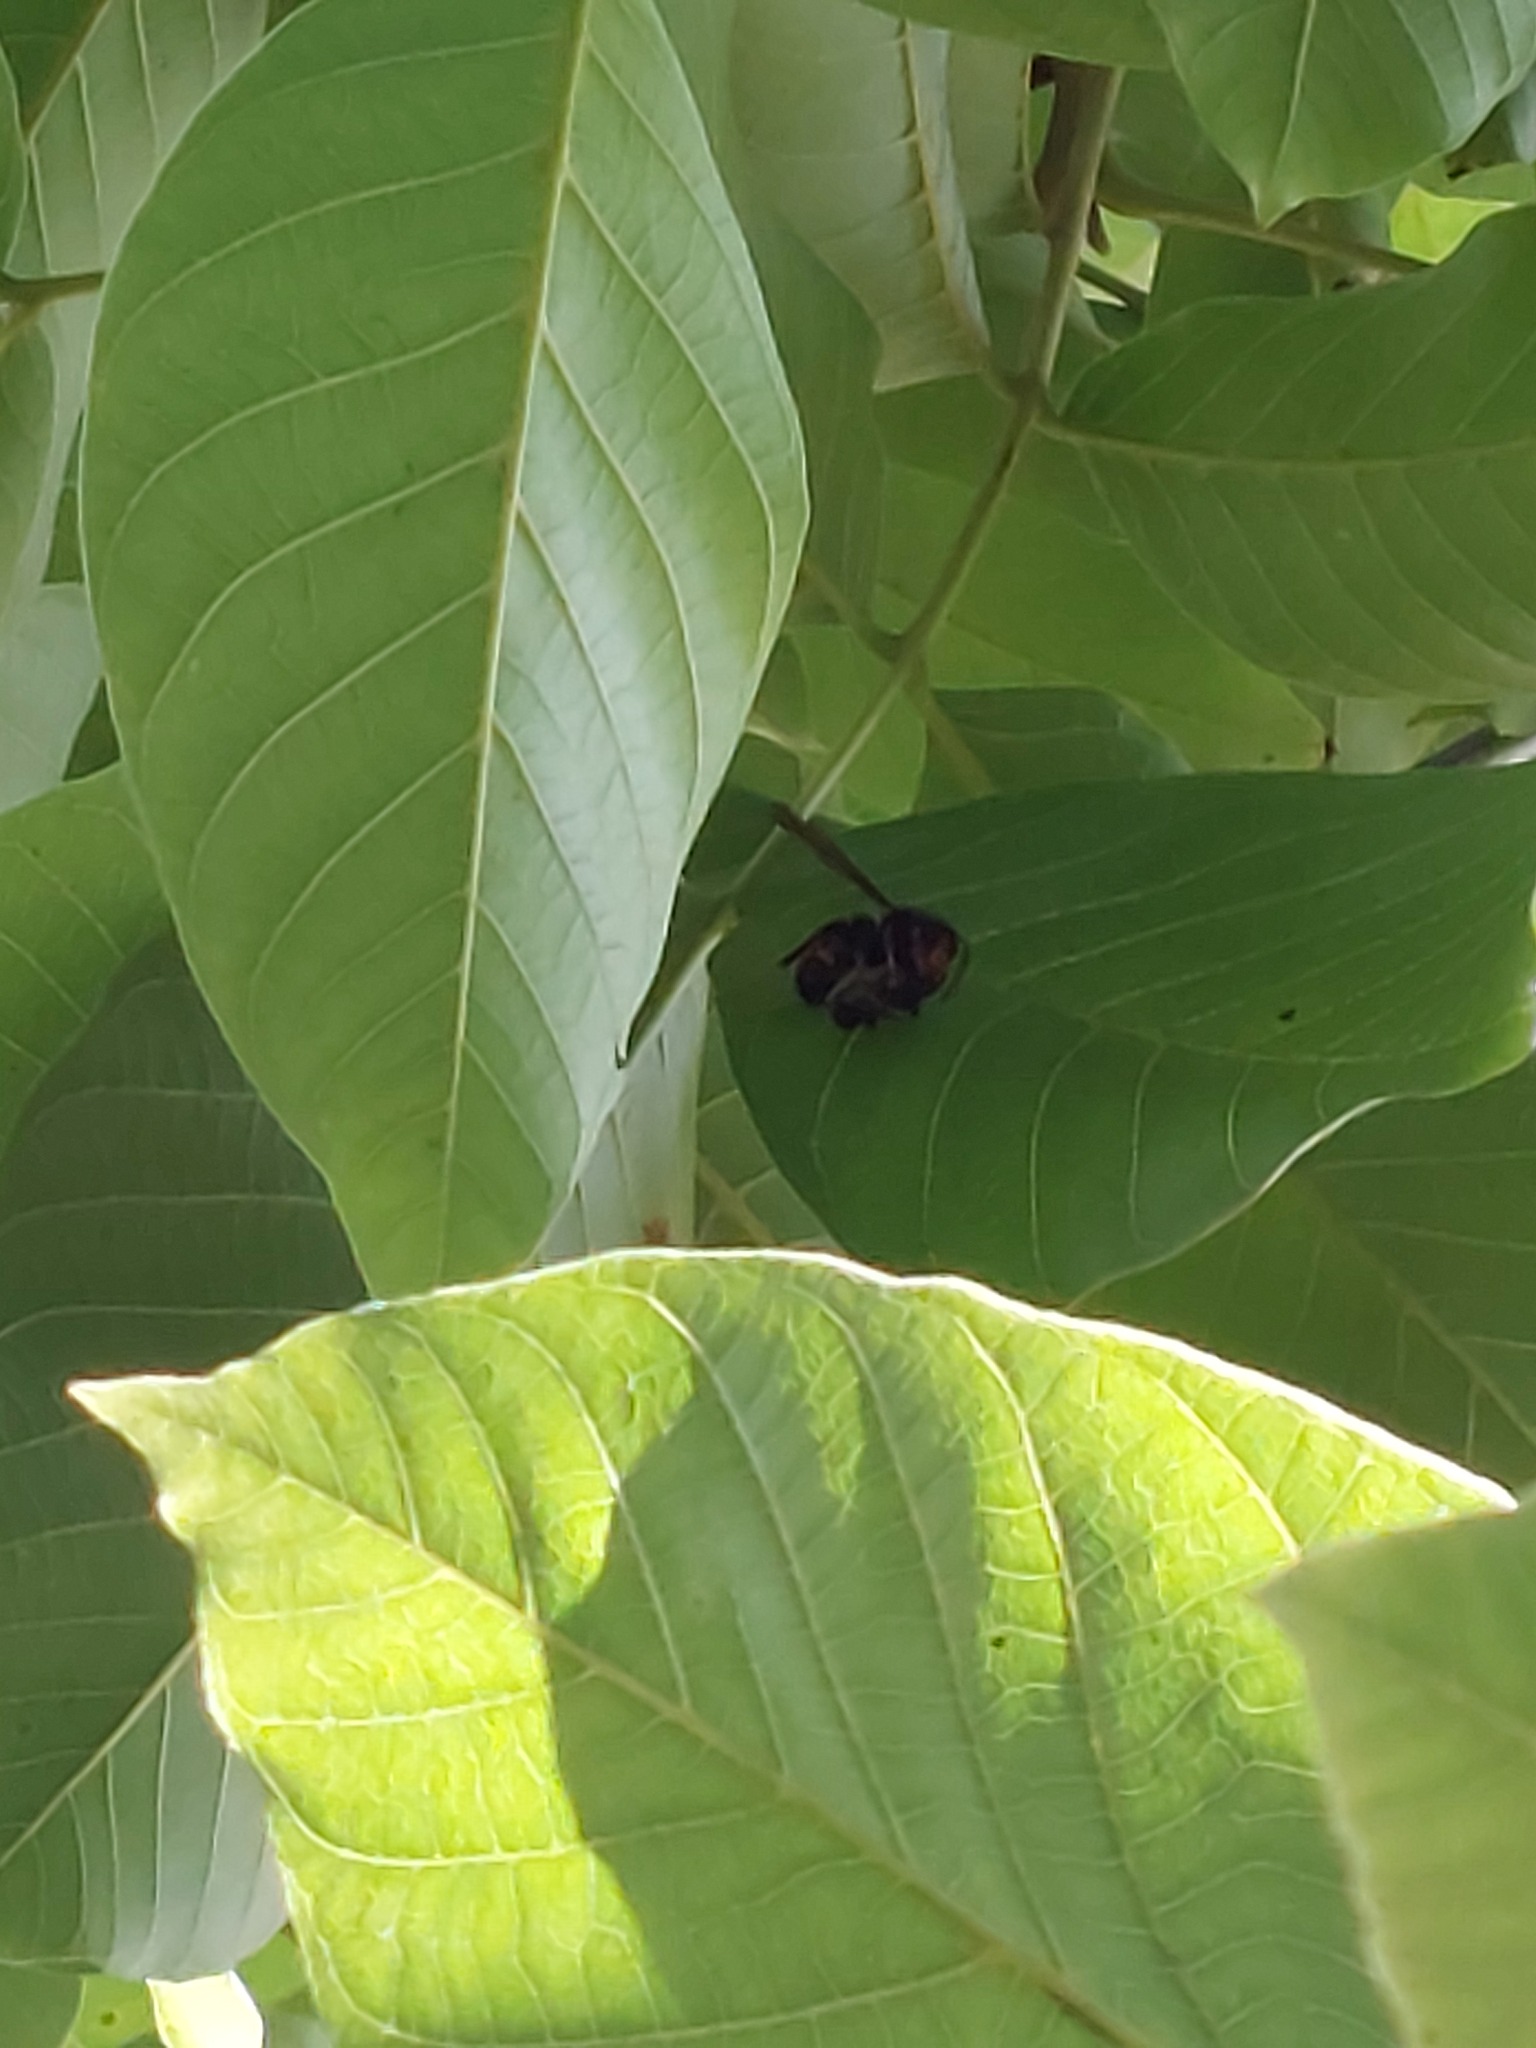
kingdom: Animalia
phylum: Arthropoda
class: Insecta
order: Hymenoptera
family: Vespidae
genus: Vespa
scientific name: Vespa velutina
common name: Asian hornet
